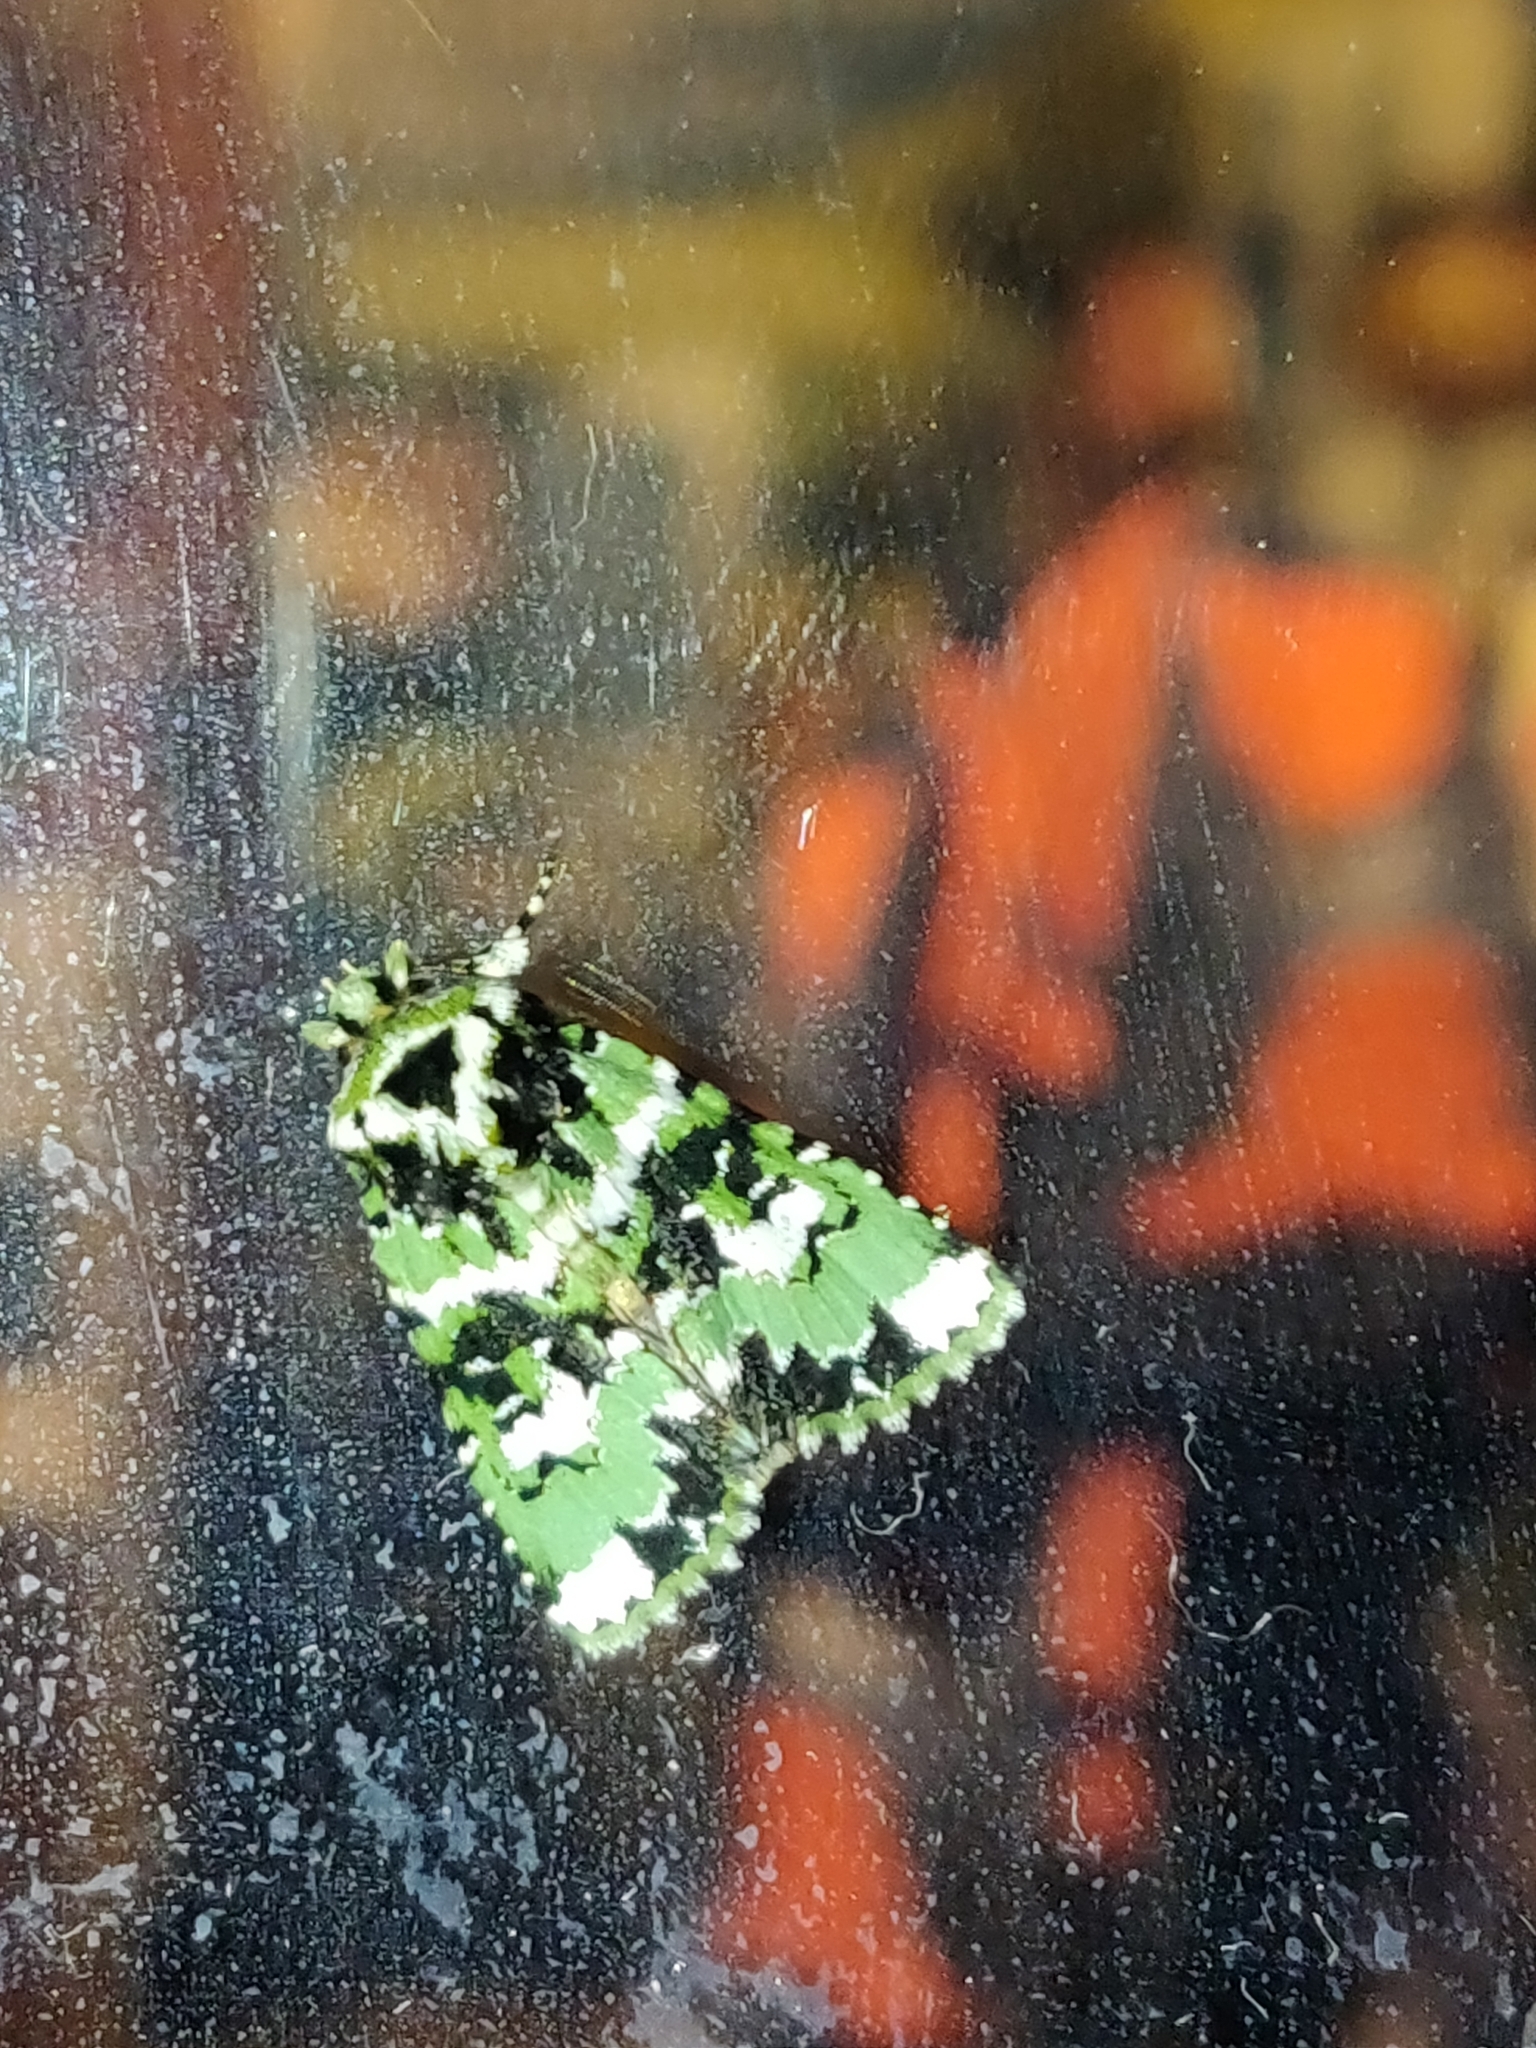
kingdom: Animalia
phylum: Arthropoda
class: Insecta
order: Lepidoptera
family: Noctuidae
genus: Thalatha
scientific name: Thalatha trichroma
